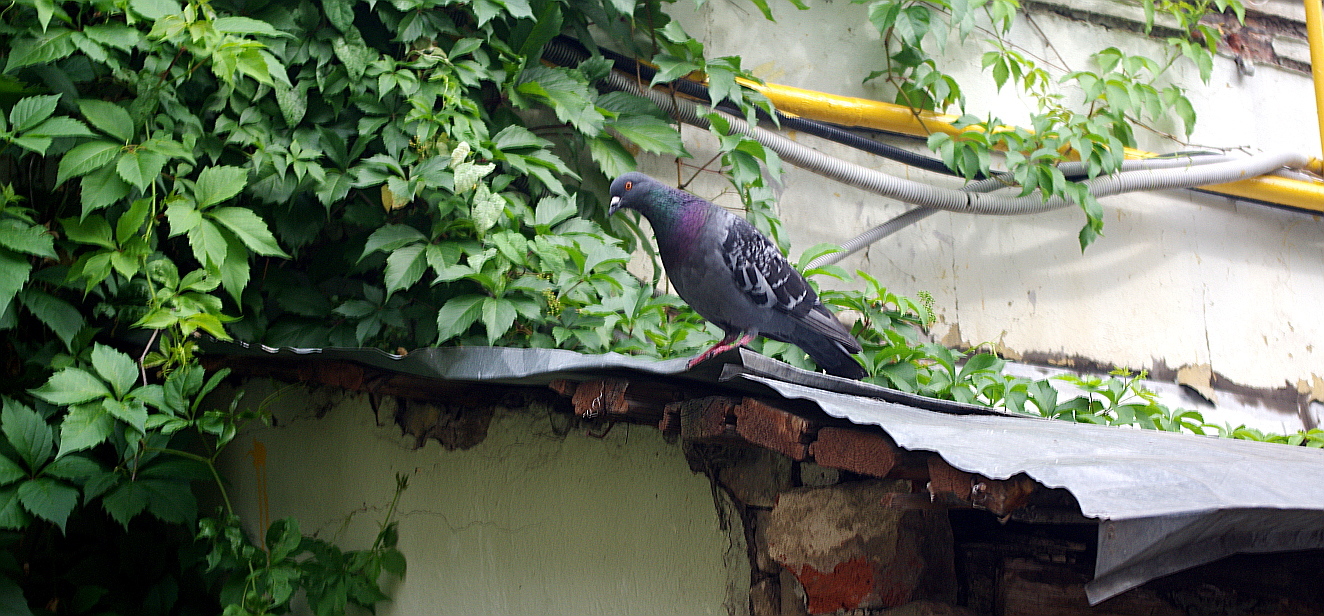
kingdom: Animalia
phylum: Chordata
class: Aves
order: Columbiformes
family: Columbidae
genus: Columba
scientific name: Columba livia
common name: Rock pigeon
